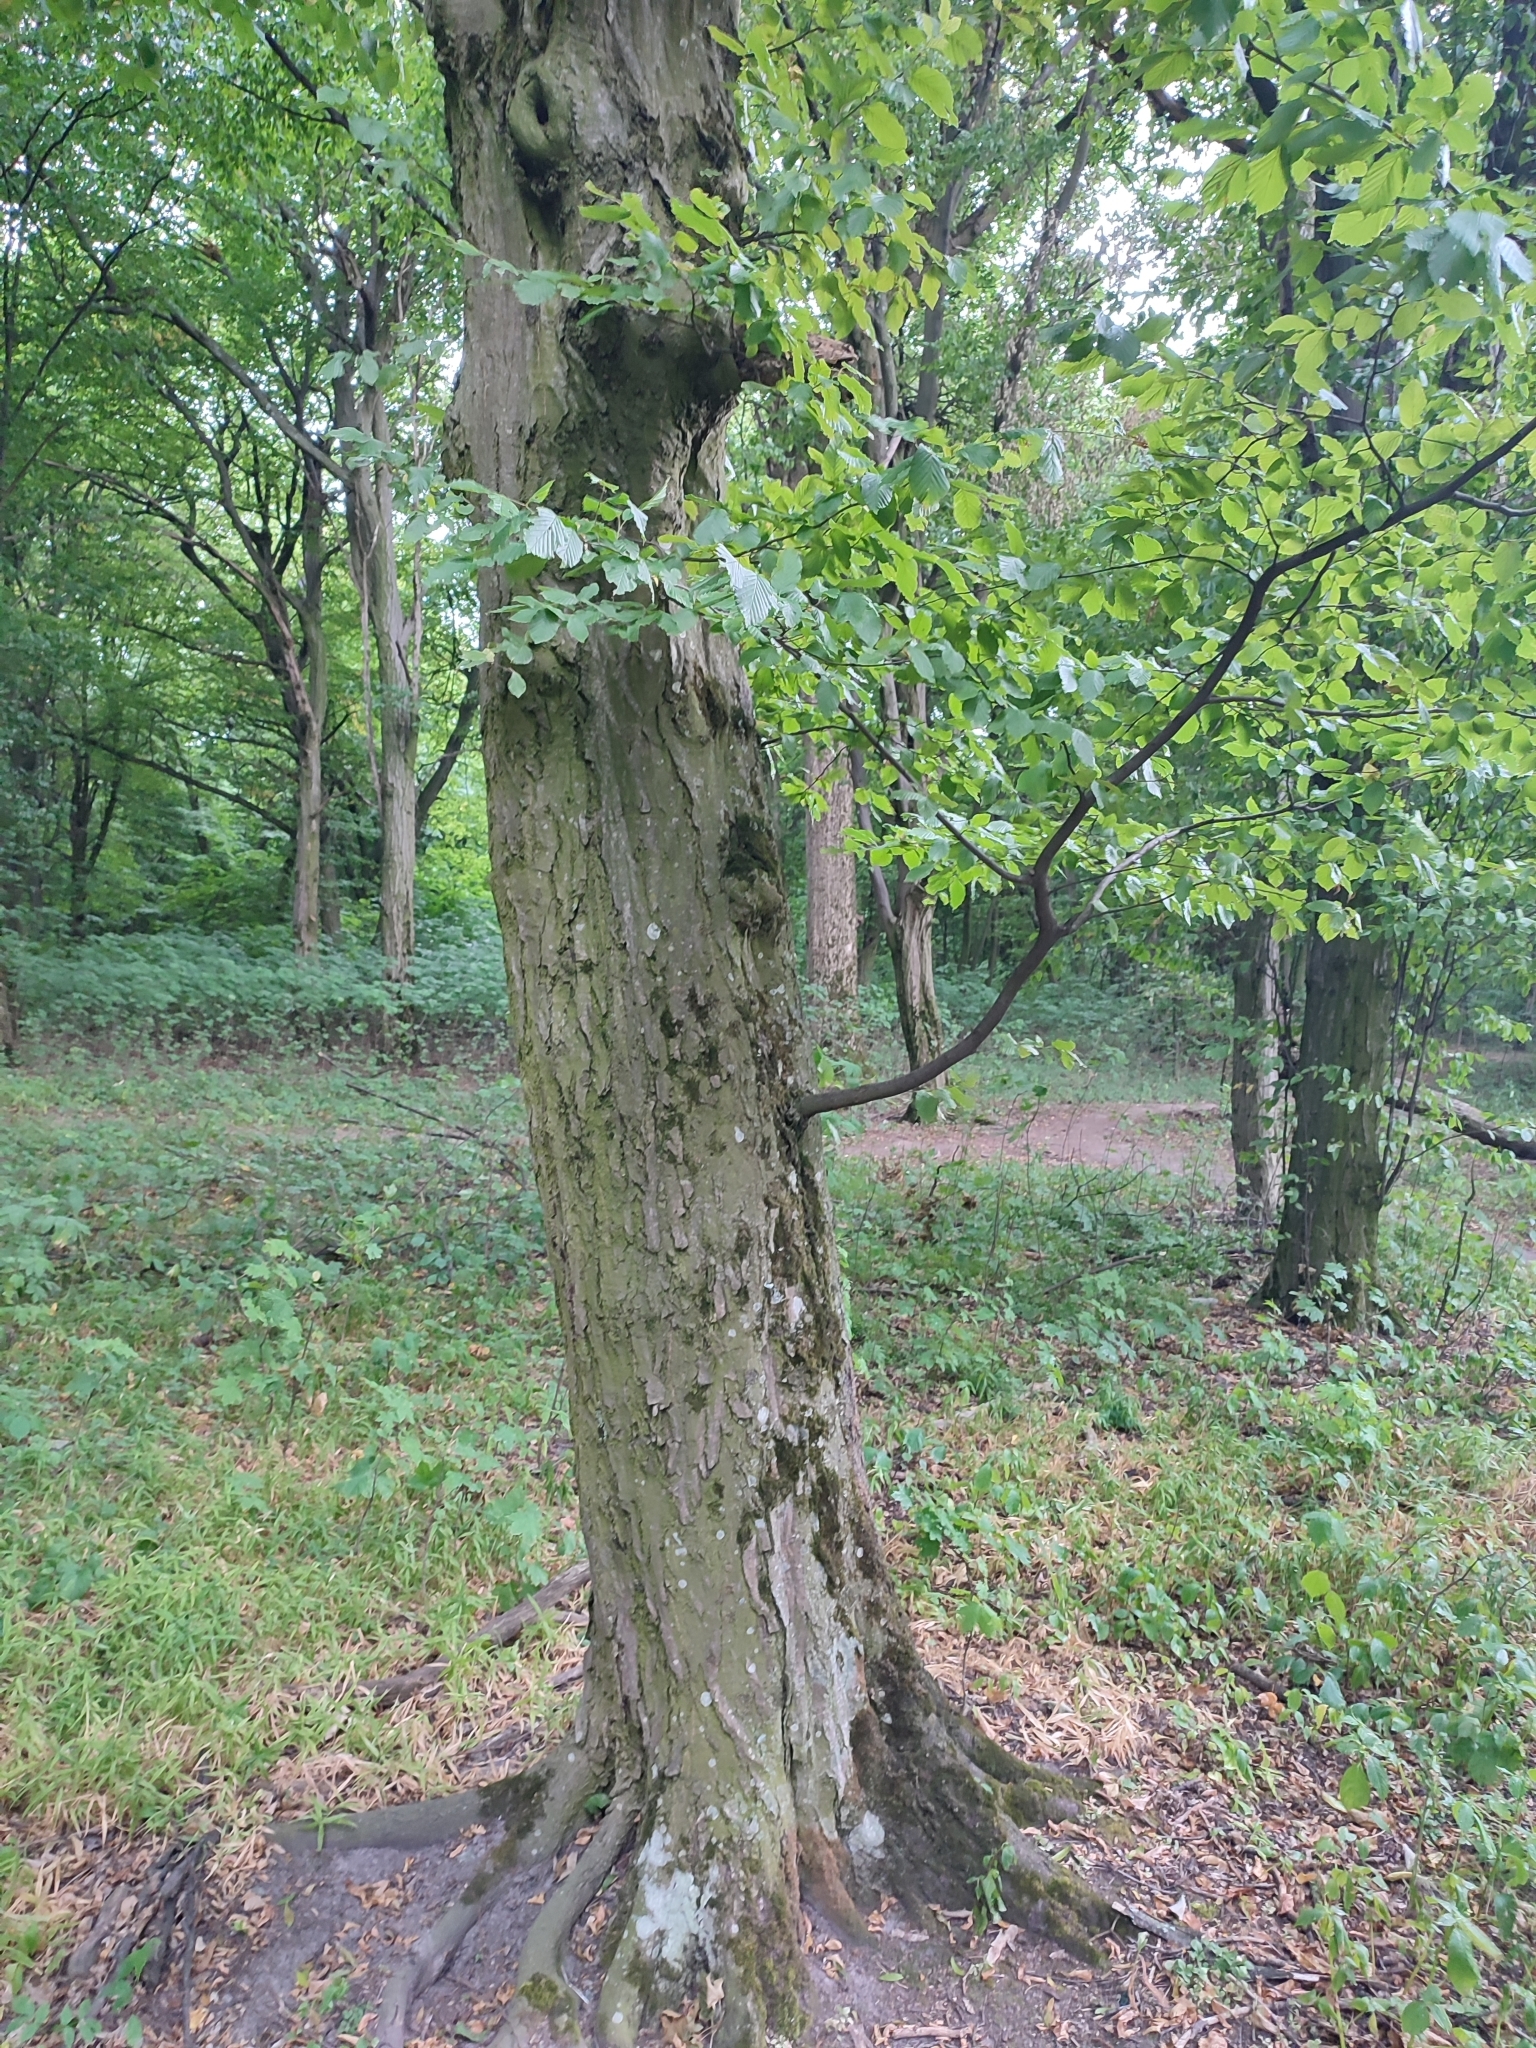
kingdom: Plantae
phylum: Tracheophyta
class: Magnoliopsida
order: Fagales
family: Betulaceae
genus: Carpinus
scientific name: Carpinus betulus
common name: Hornbeam
